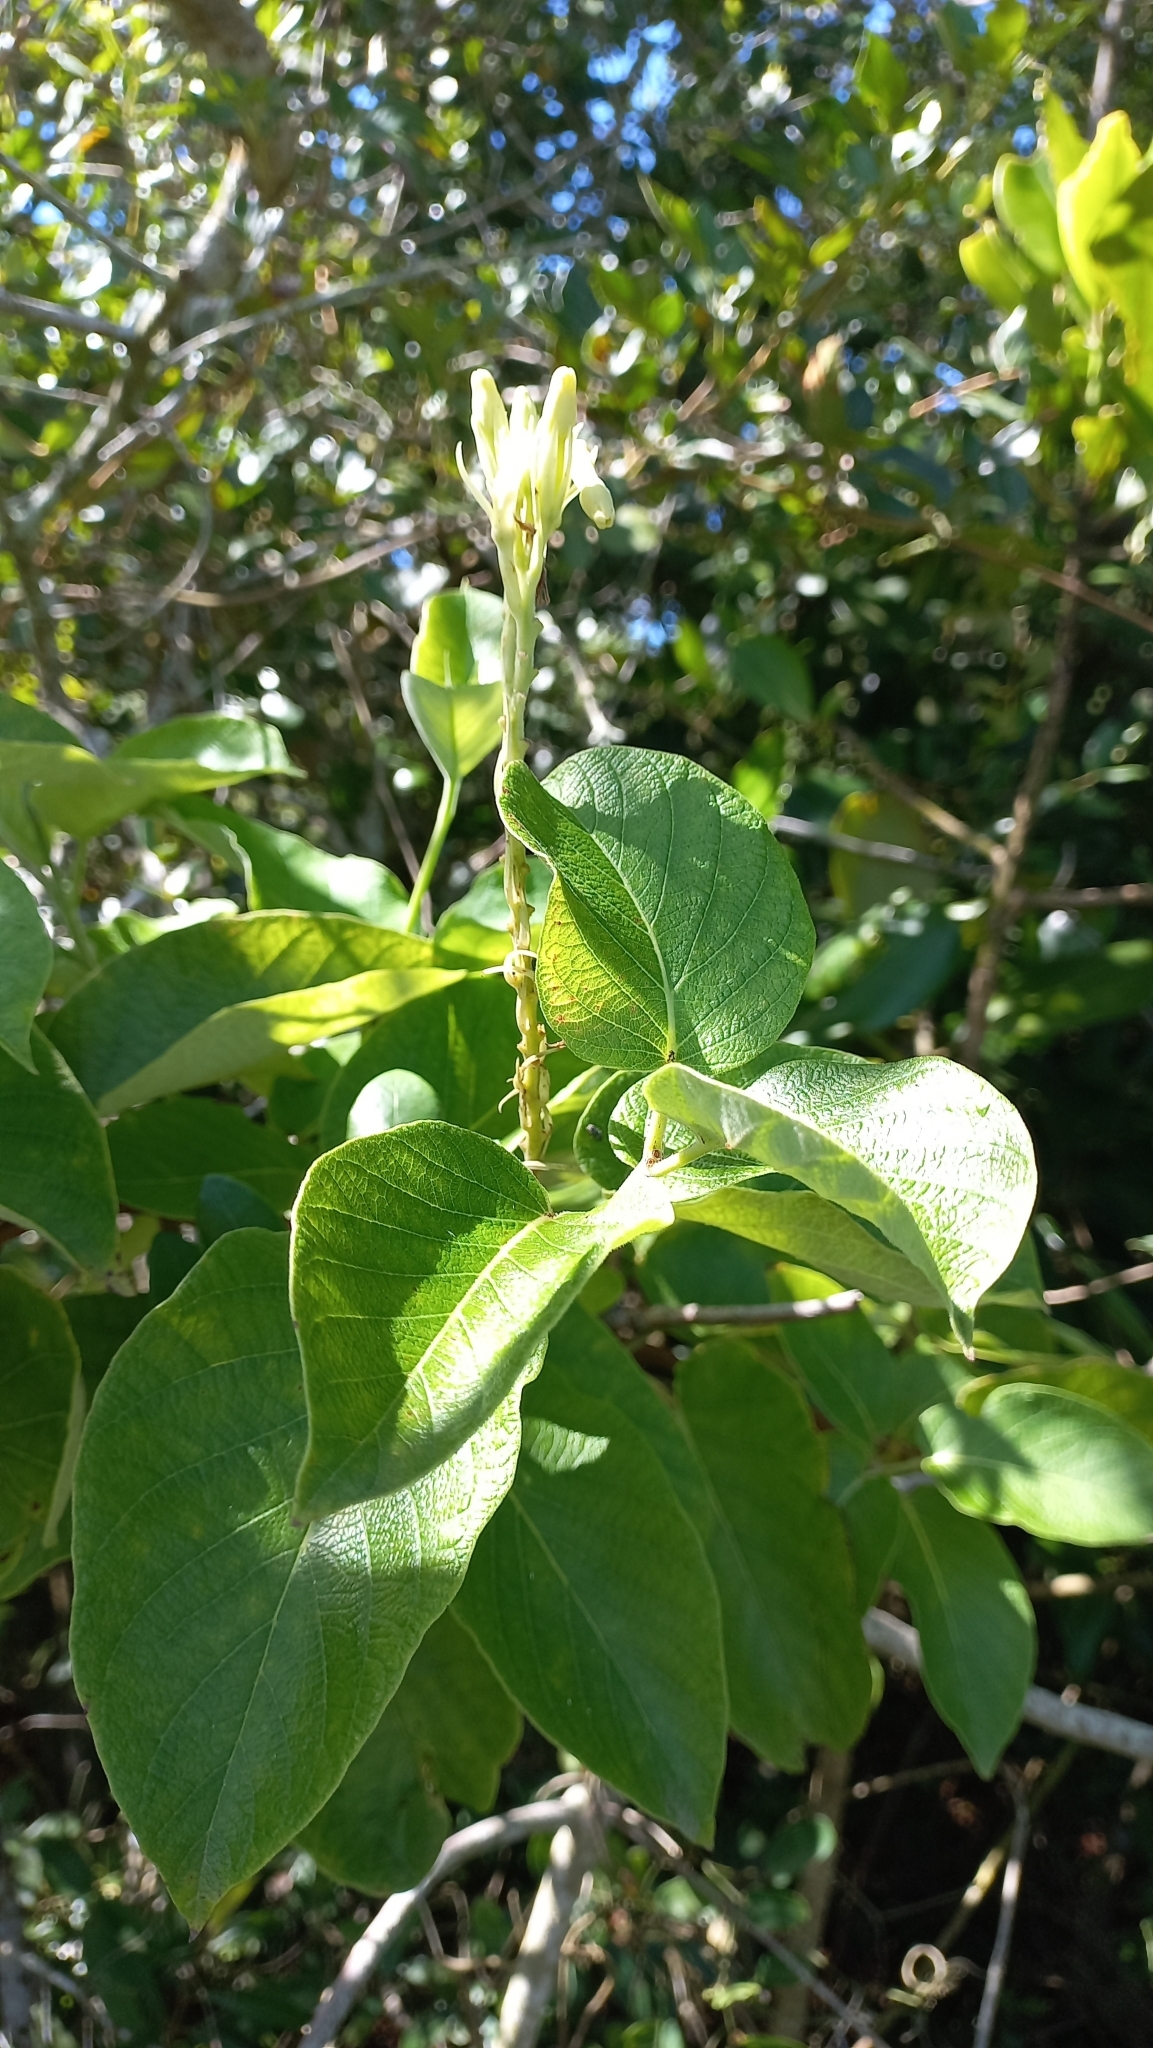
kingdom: Plantae
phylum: Tracheophyta
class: Magnoliopsida
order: Gentianales
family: Apocynaceae
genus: Mandevilla
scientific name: Mandevilla pentlandiana
